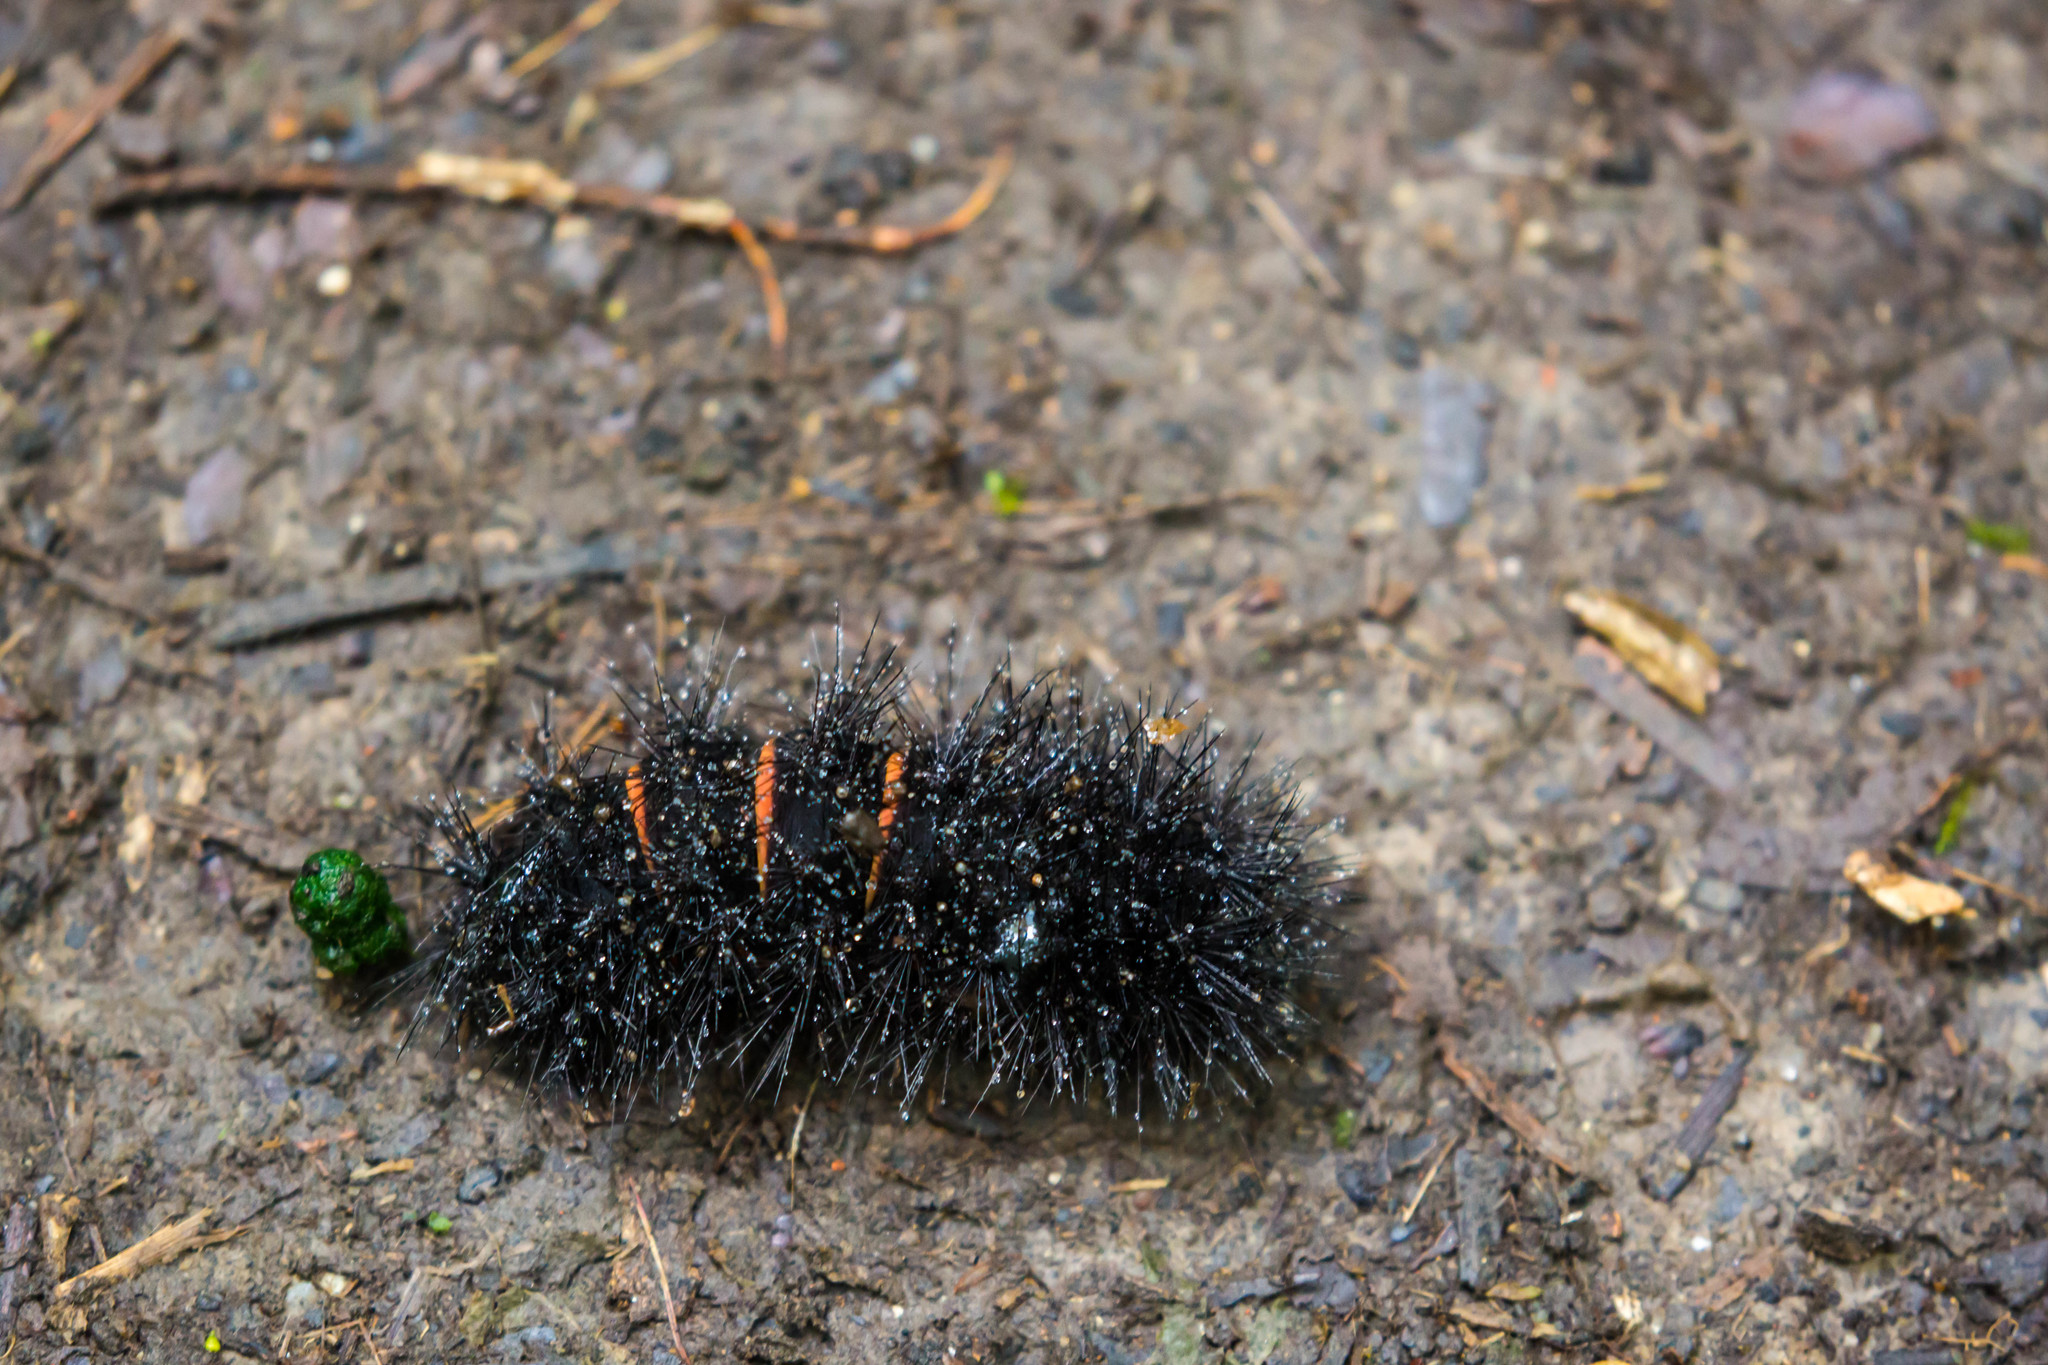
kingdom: Animalia
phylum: Arthropoda
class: Insecta
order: Lepidoptera
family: Erebidae
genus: Hypercompe
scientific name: Hypercompe scribonia
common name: Giant leopard moth
